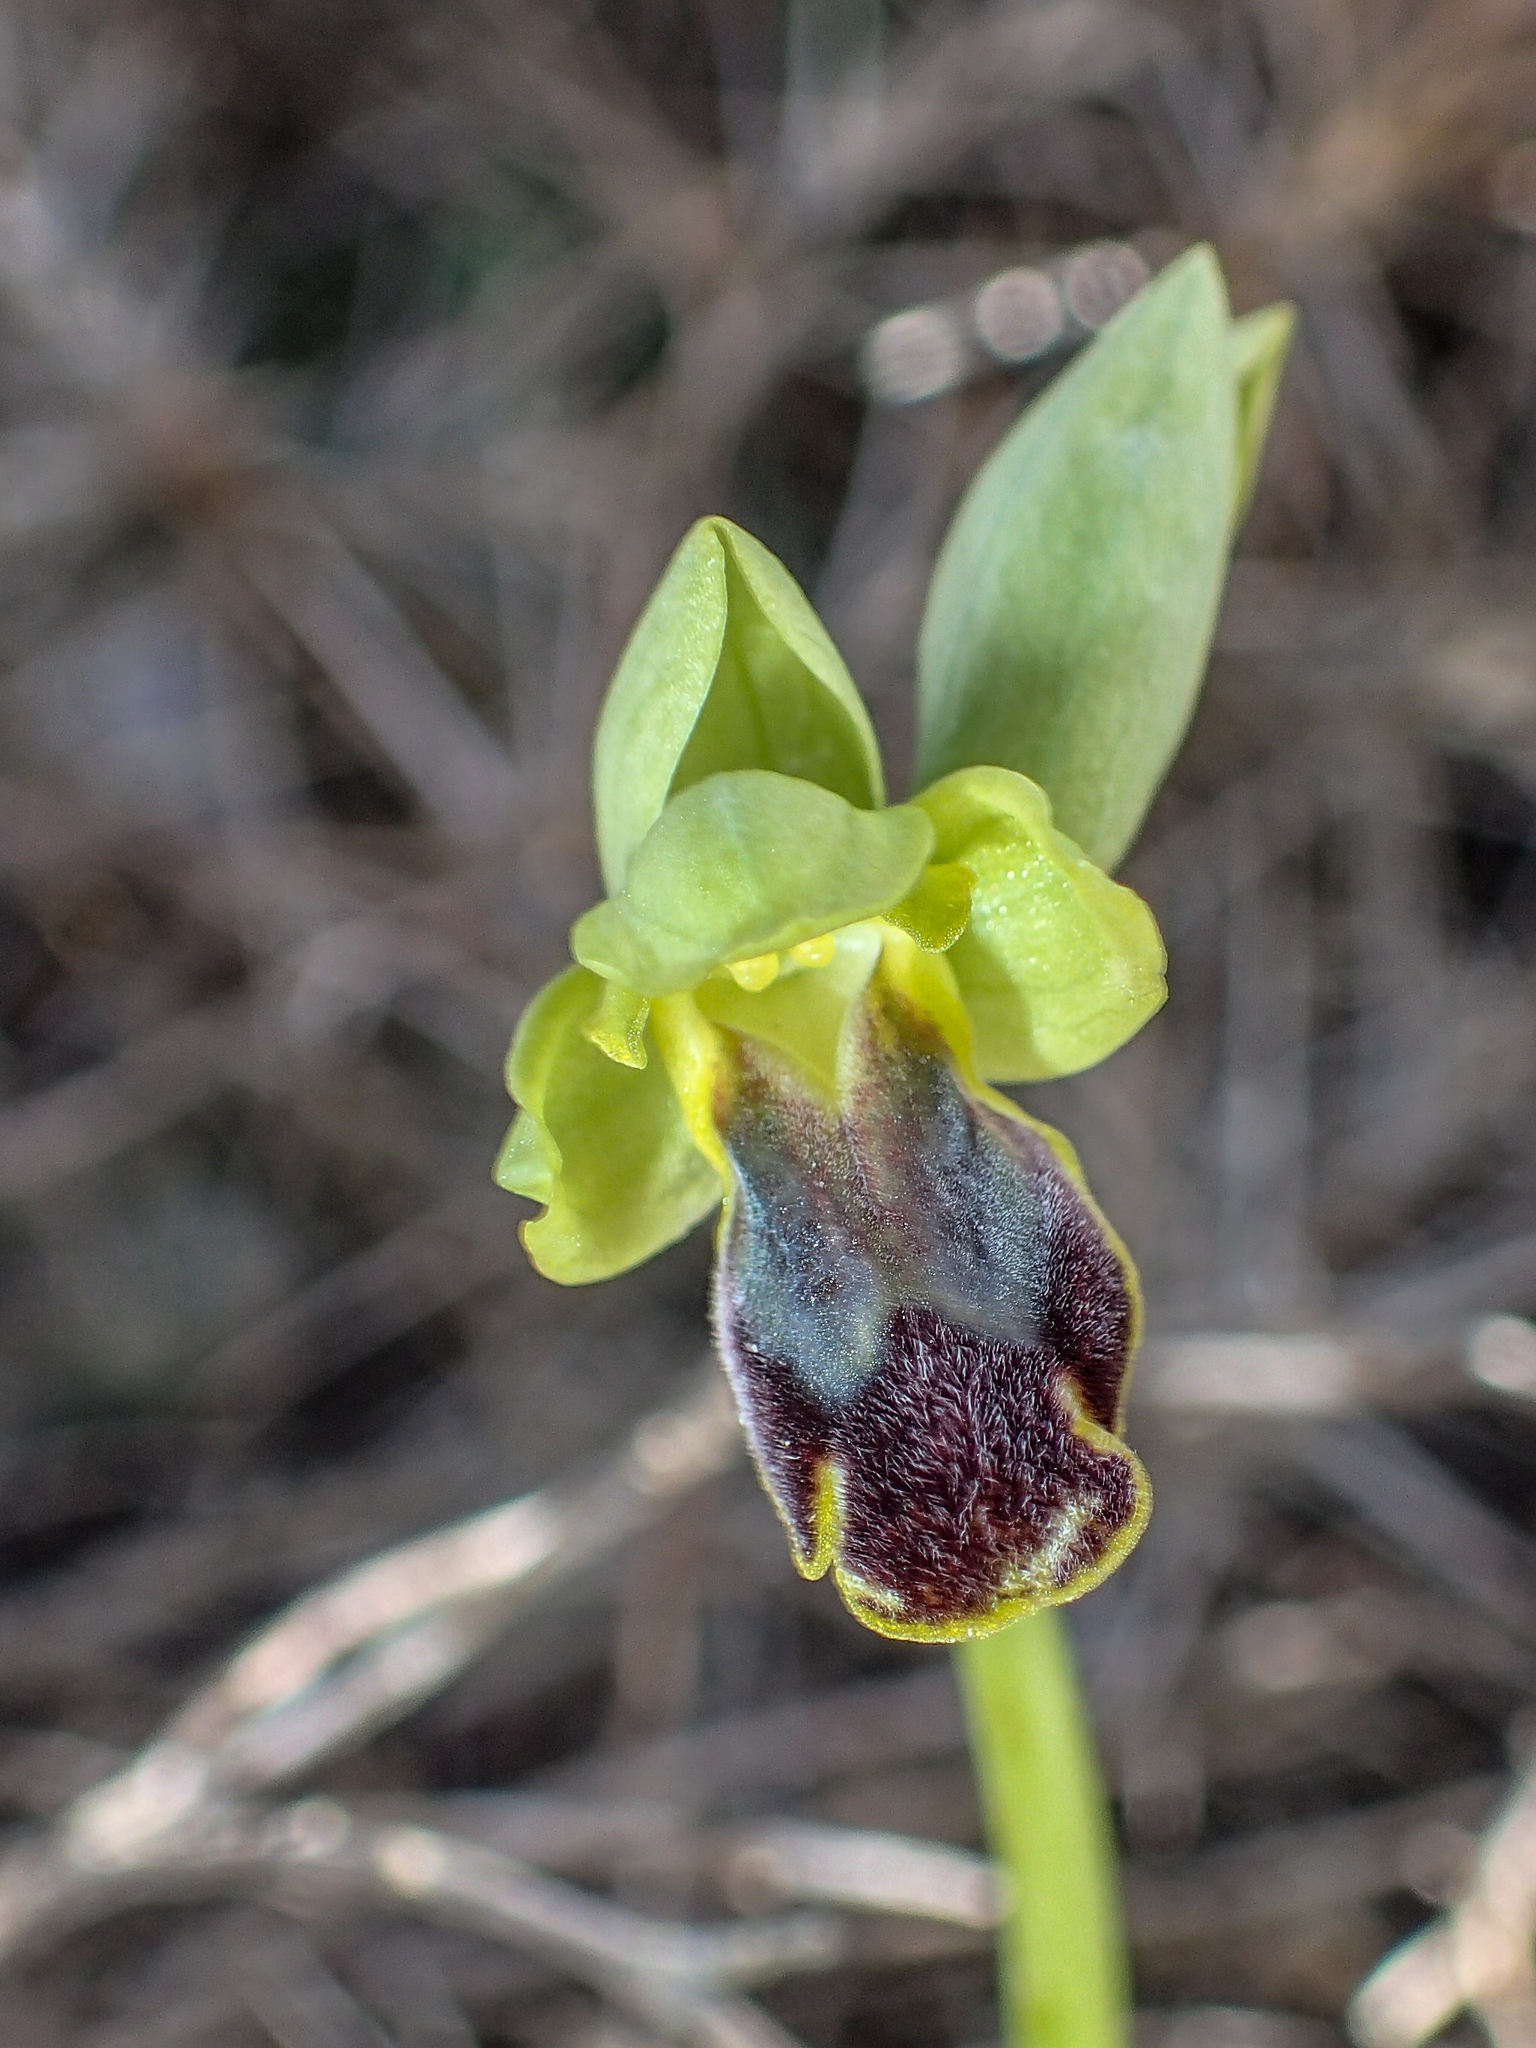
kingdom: Plantae
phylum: Tracheophyta
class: Liliopsida
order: Asparagales
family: Orchidaceae
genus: Ophrys
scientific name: Ophrys fusca
